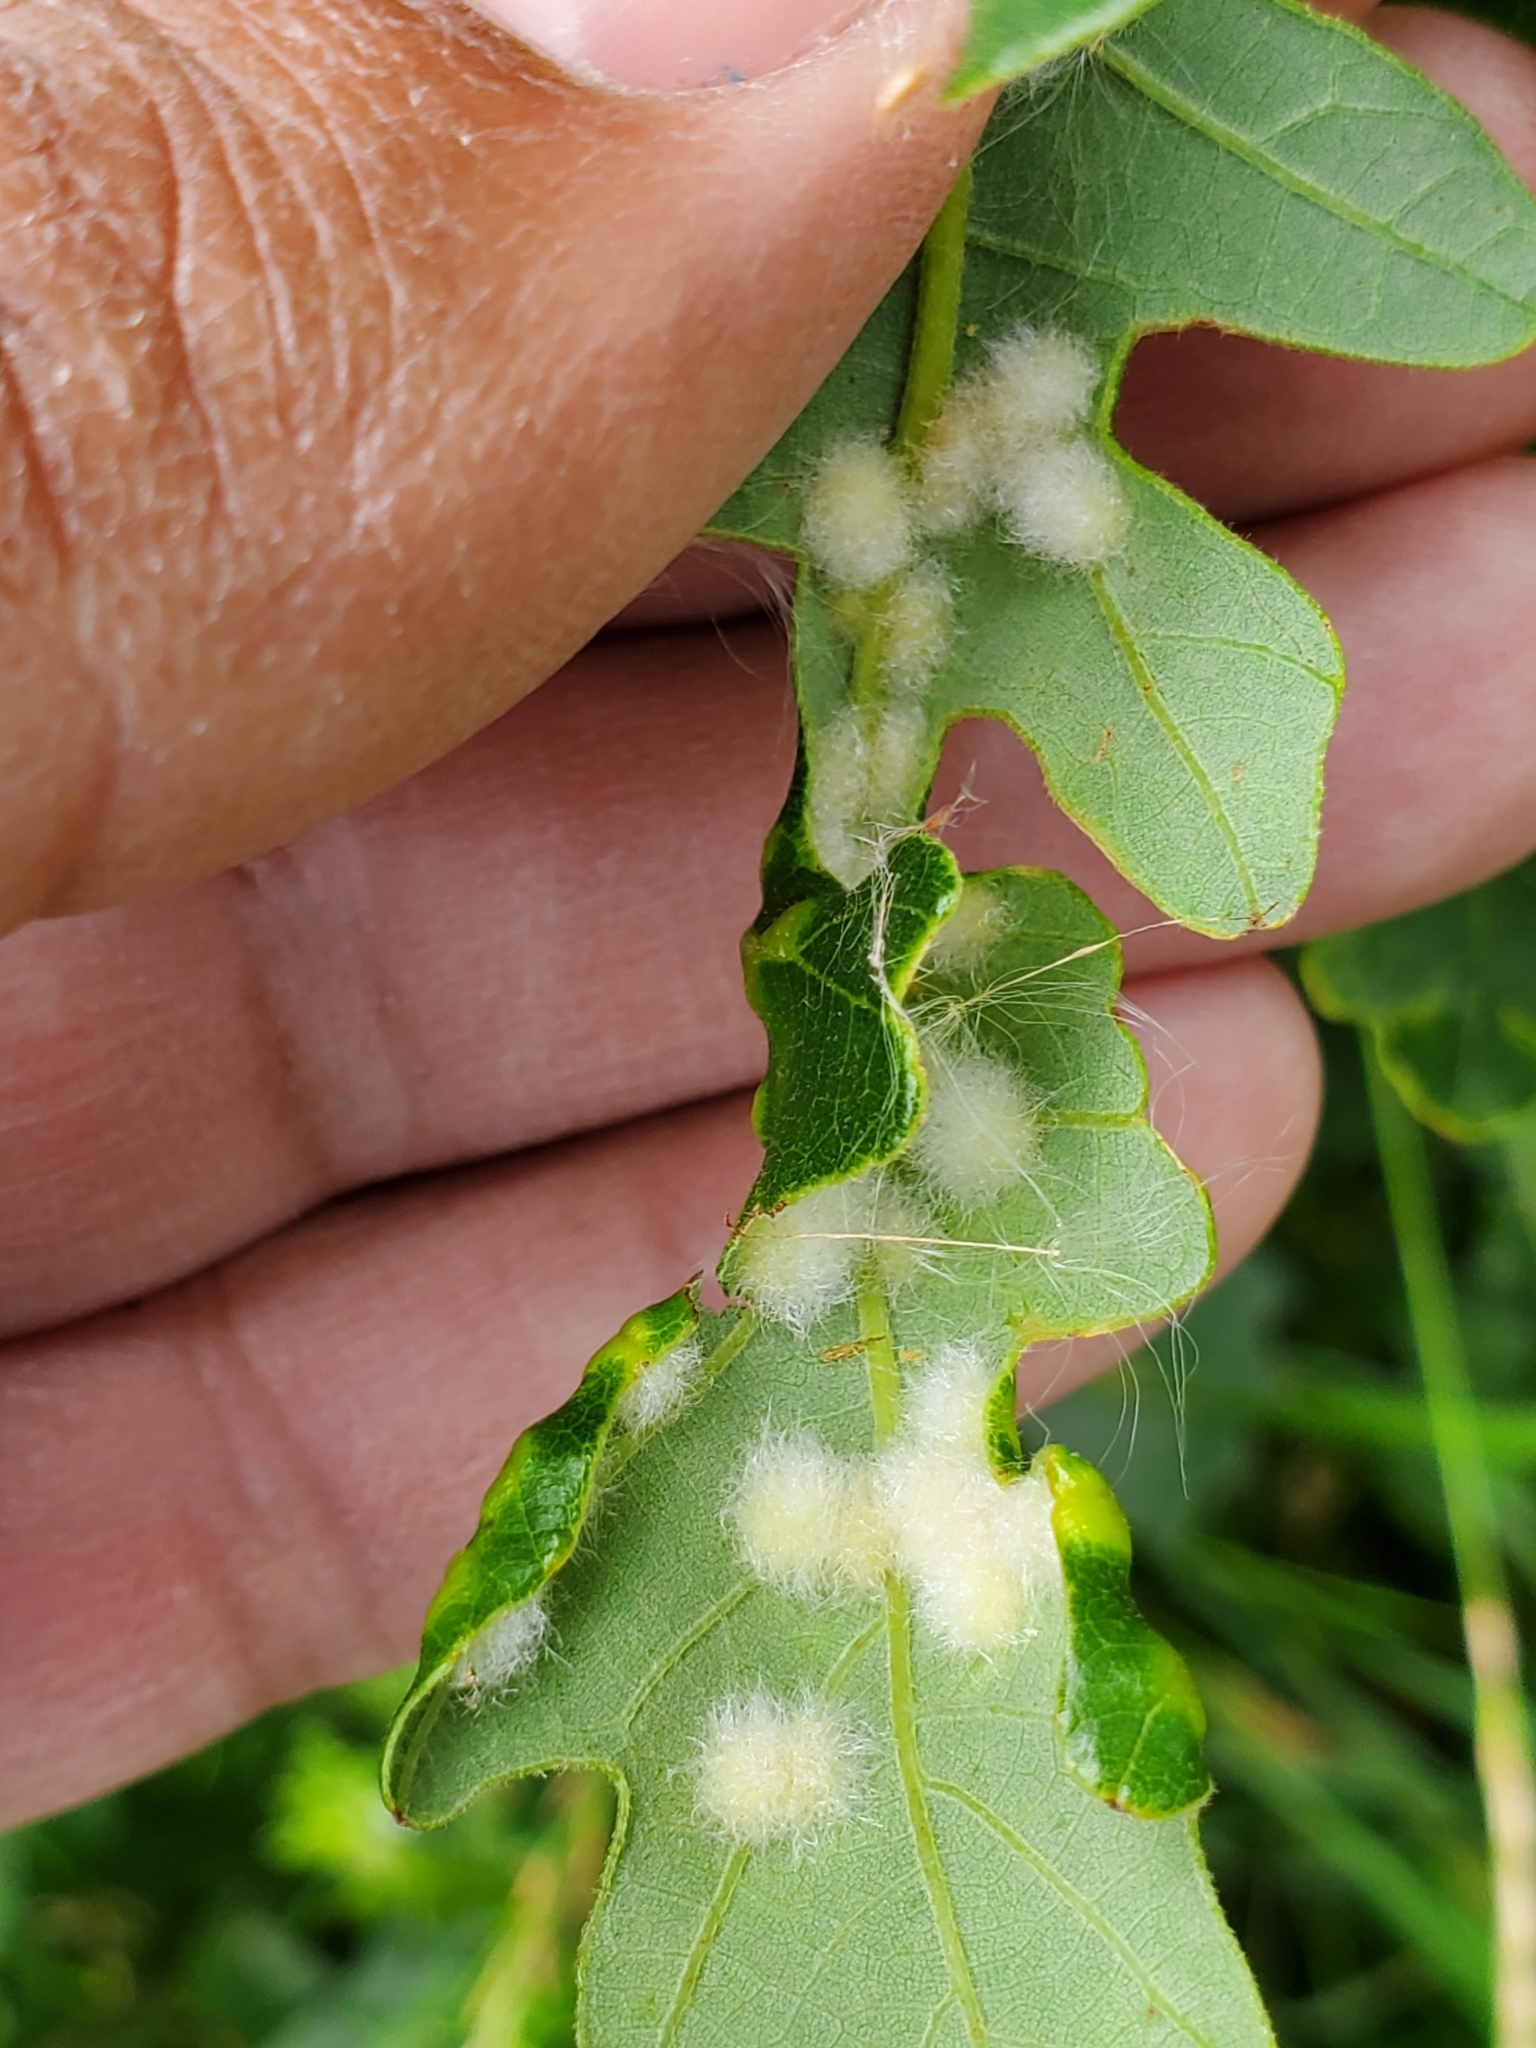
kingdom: Animalia
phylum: Arthropoda
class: Insecta
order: Hymenoptera
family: Cynipidae
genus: Neuroterus
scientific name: Neuroterus floccosus
